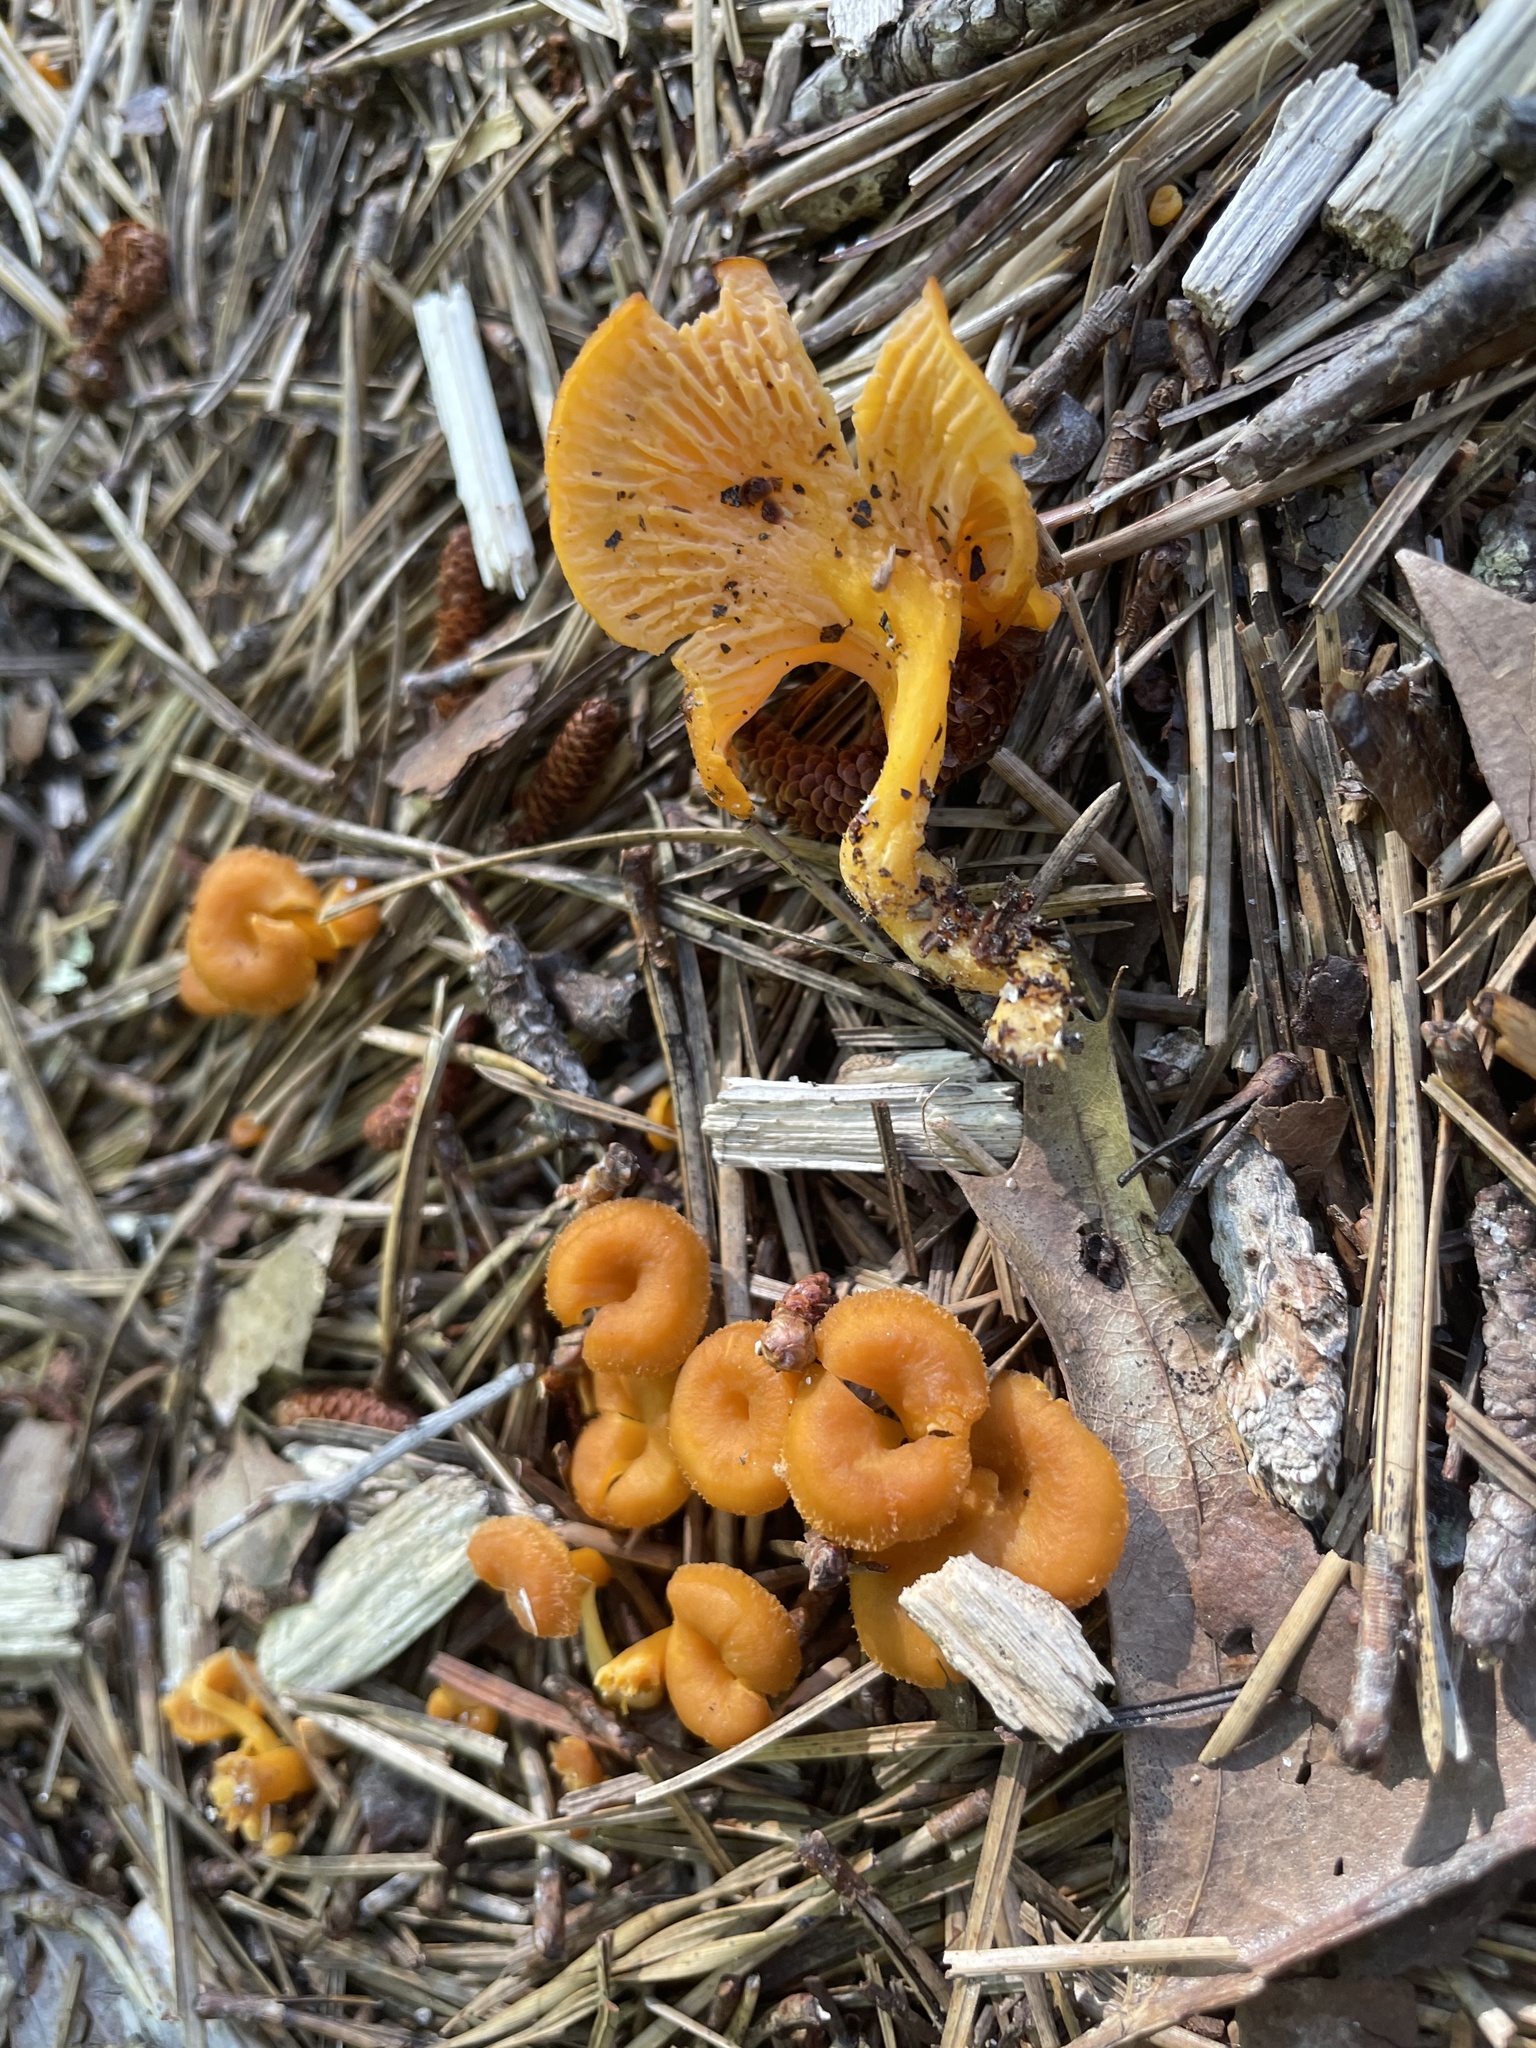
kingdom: Fungi
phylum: Basidiomycota
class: Agaricomycetes
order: Cantharellales
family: Hydnaceae
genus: Craterellus
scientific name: Craterellus ignicolor
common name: Flame chanterelle
